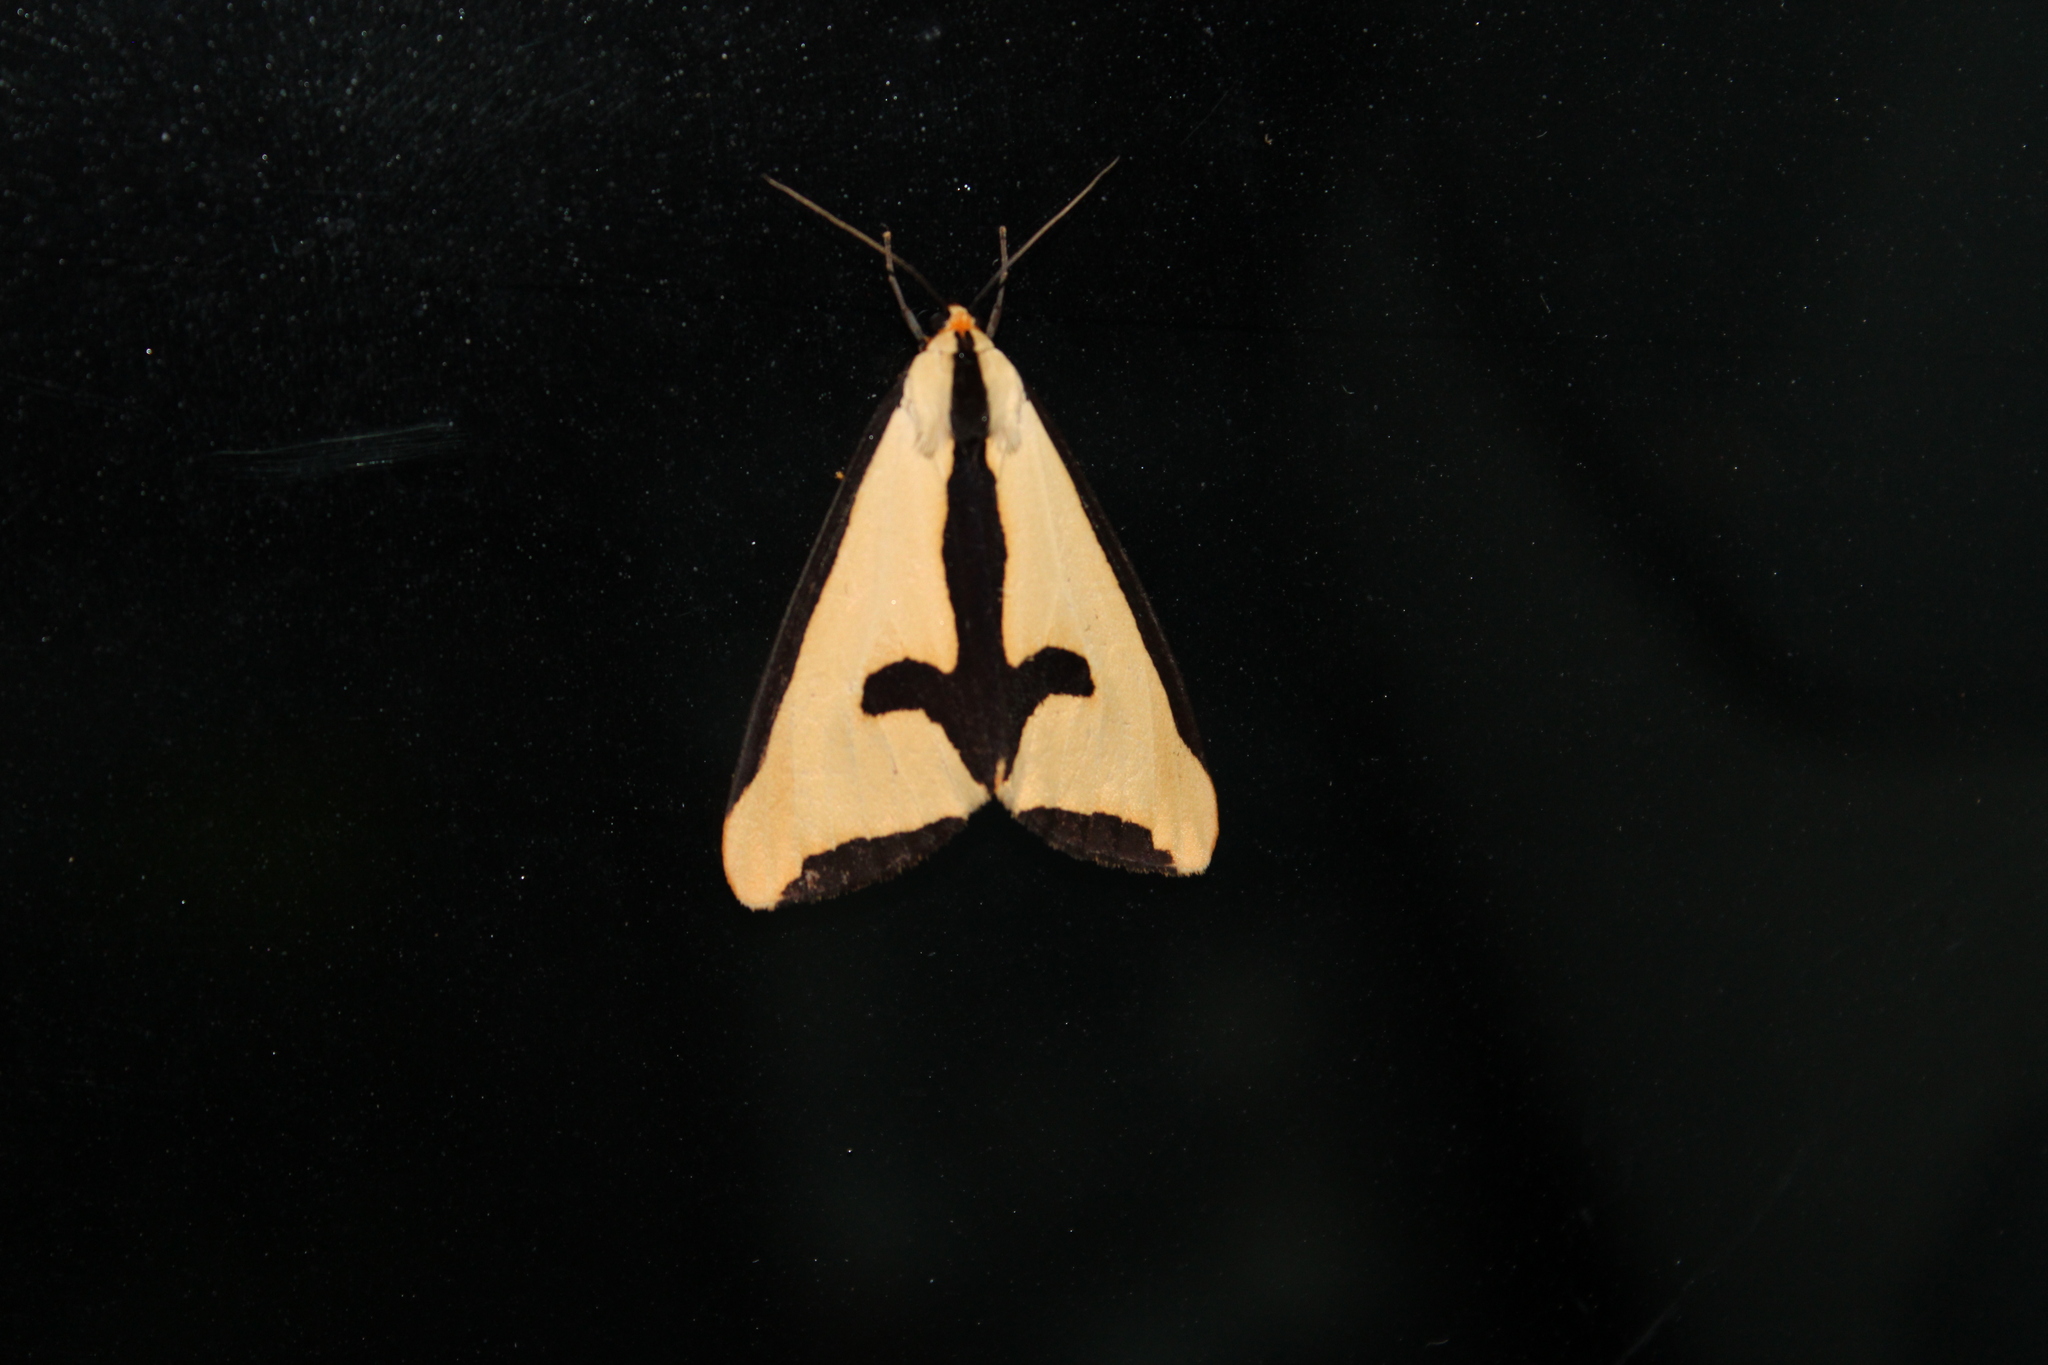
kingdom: Animalia
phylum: Arthropoda
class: Insecta
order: Lepidoptera
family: Erebidae
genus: Haploa
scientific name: Haploa clymene
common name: Clymene moth
